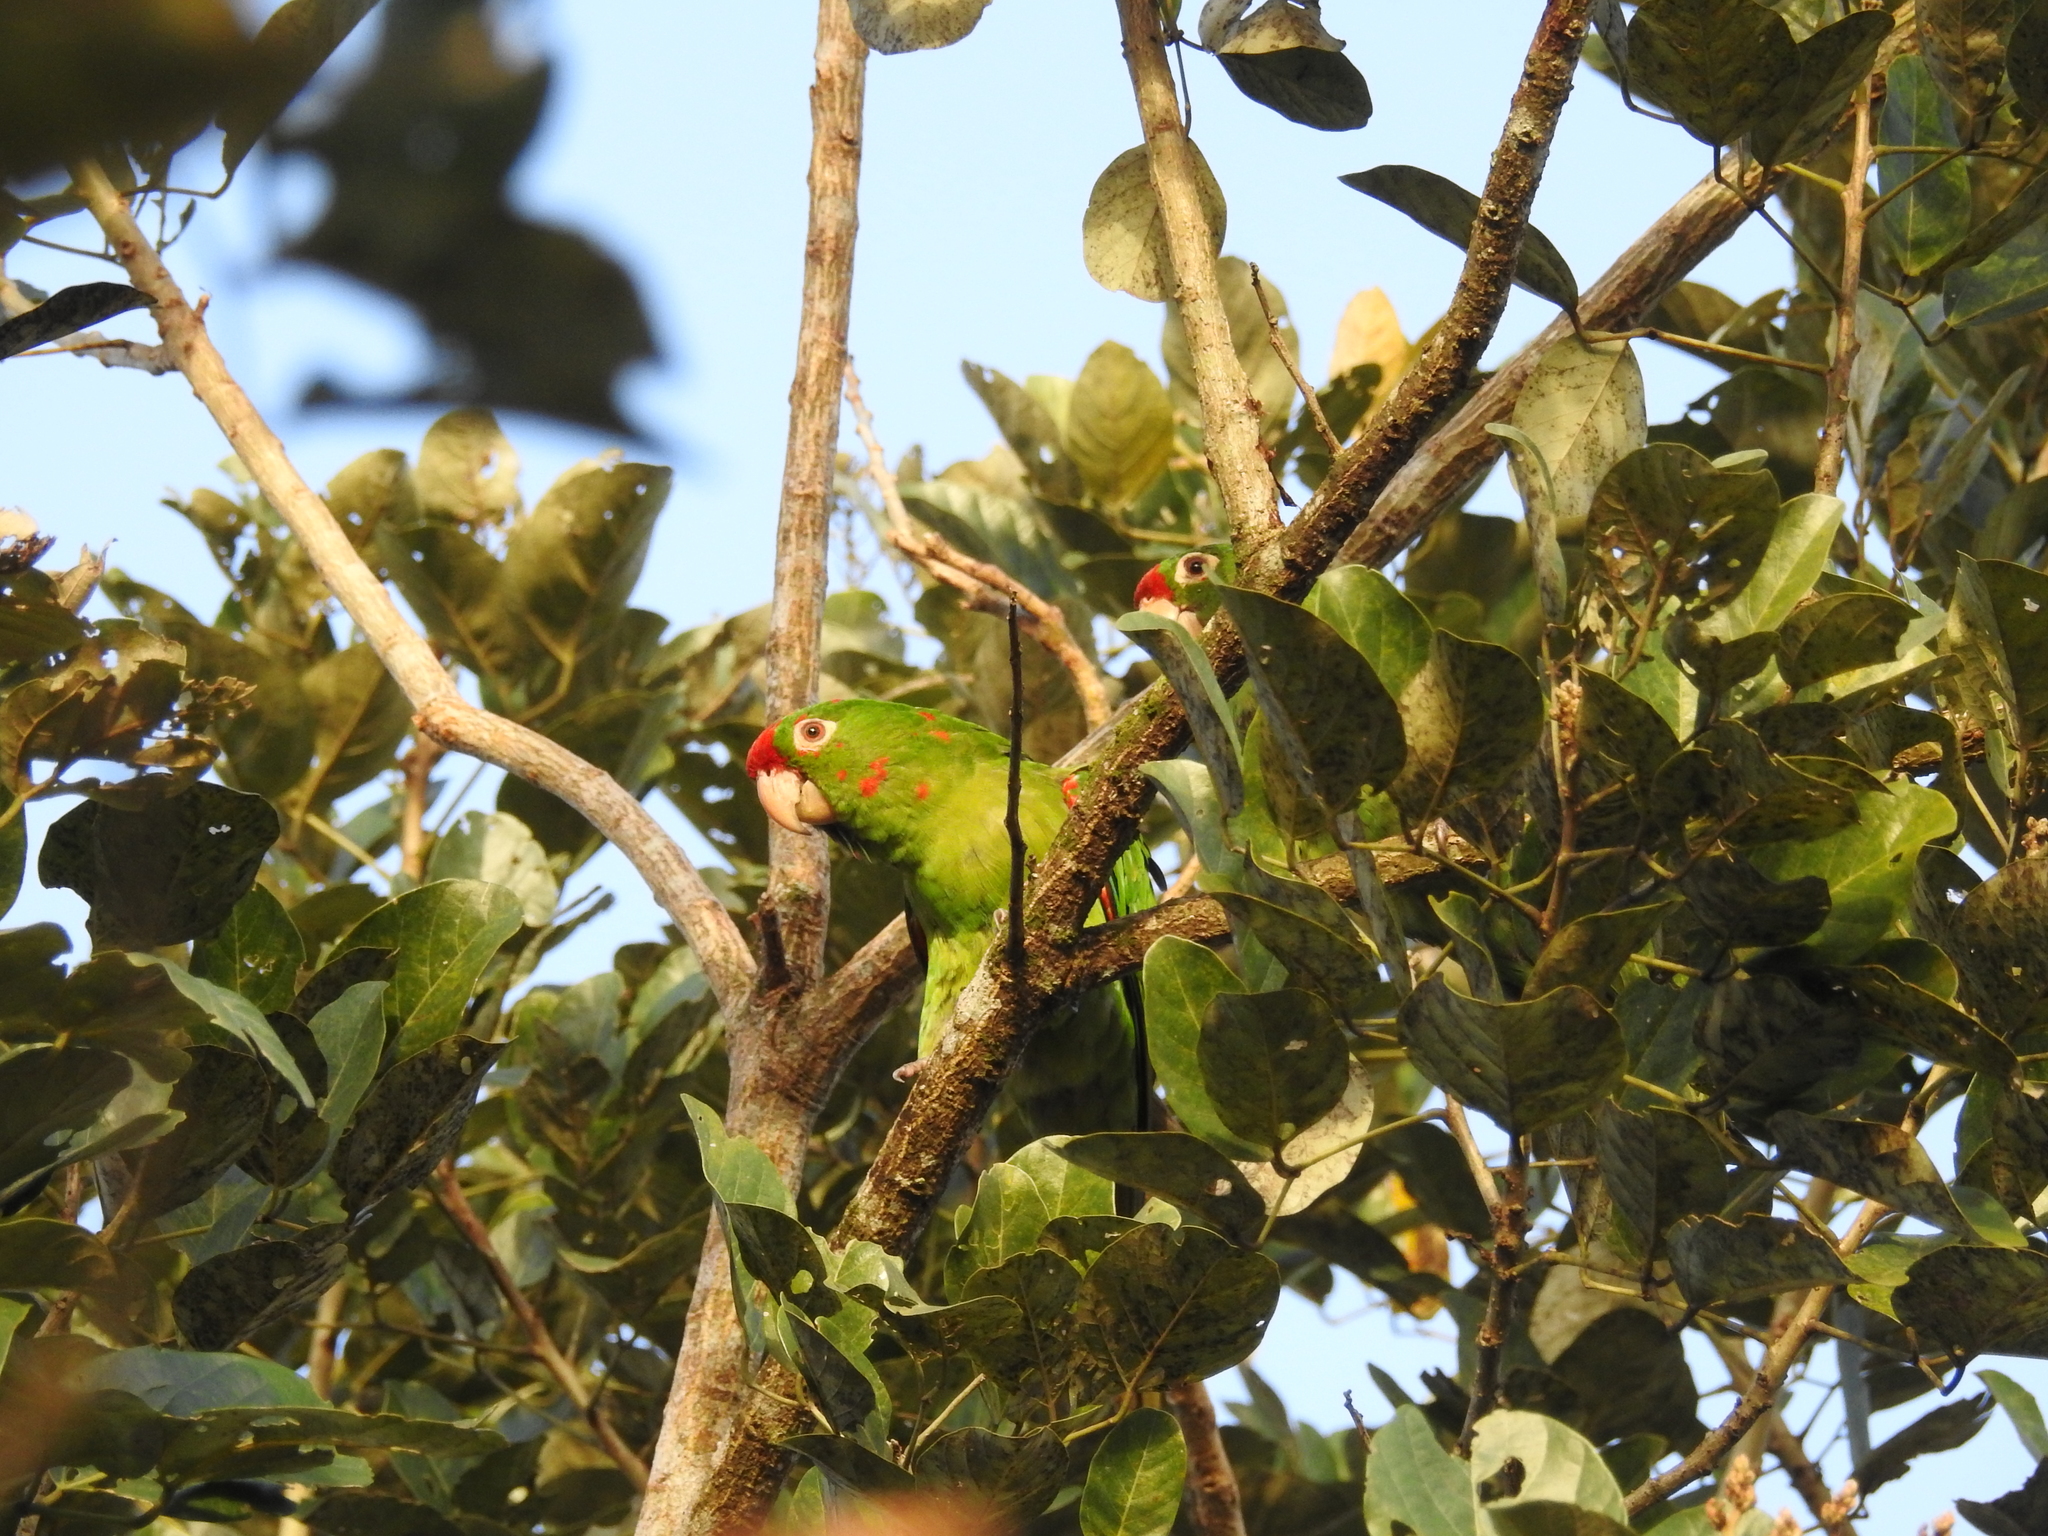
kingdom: Animalia
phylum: Chordata
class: Aves
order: Psittaciformes
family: Psittacidae
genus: Aratinga
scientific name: Aratinga finschi
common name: Crimson-fronted parakeet
